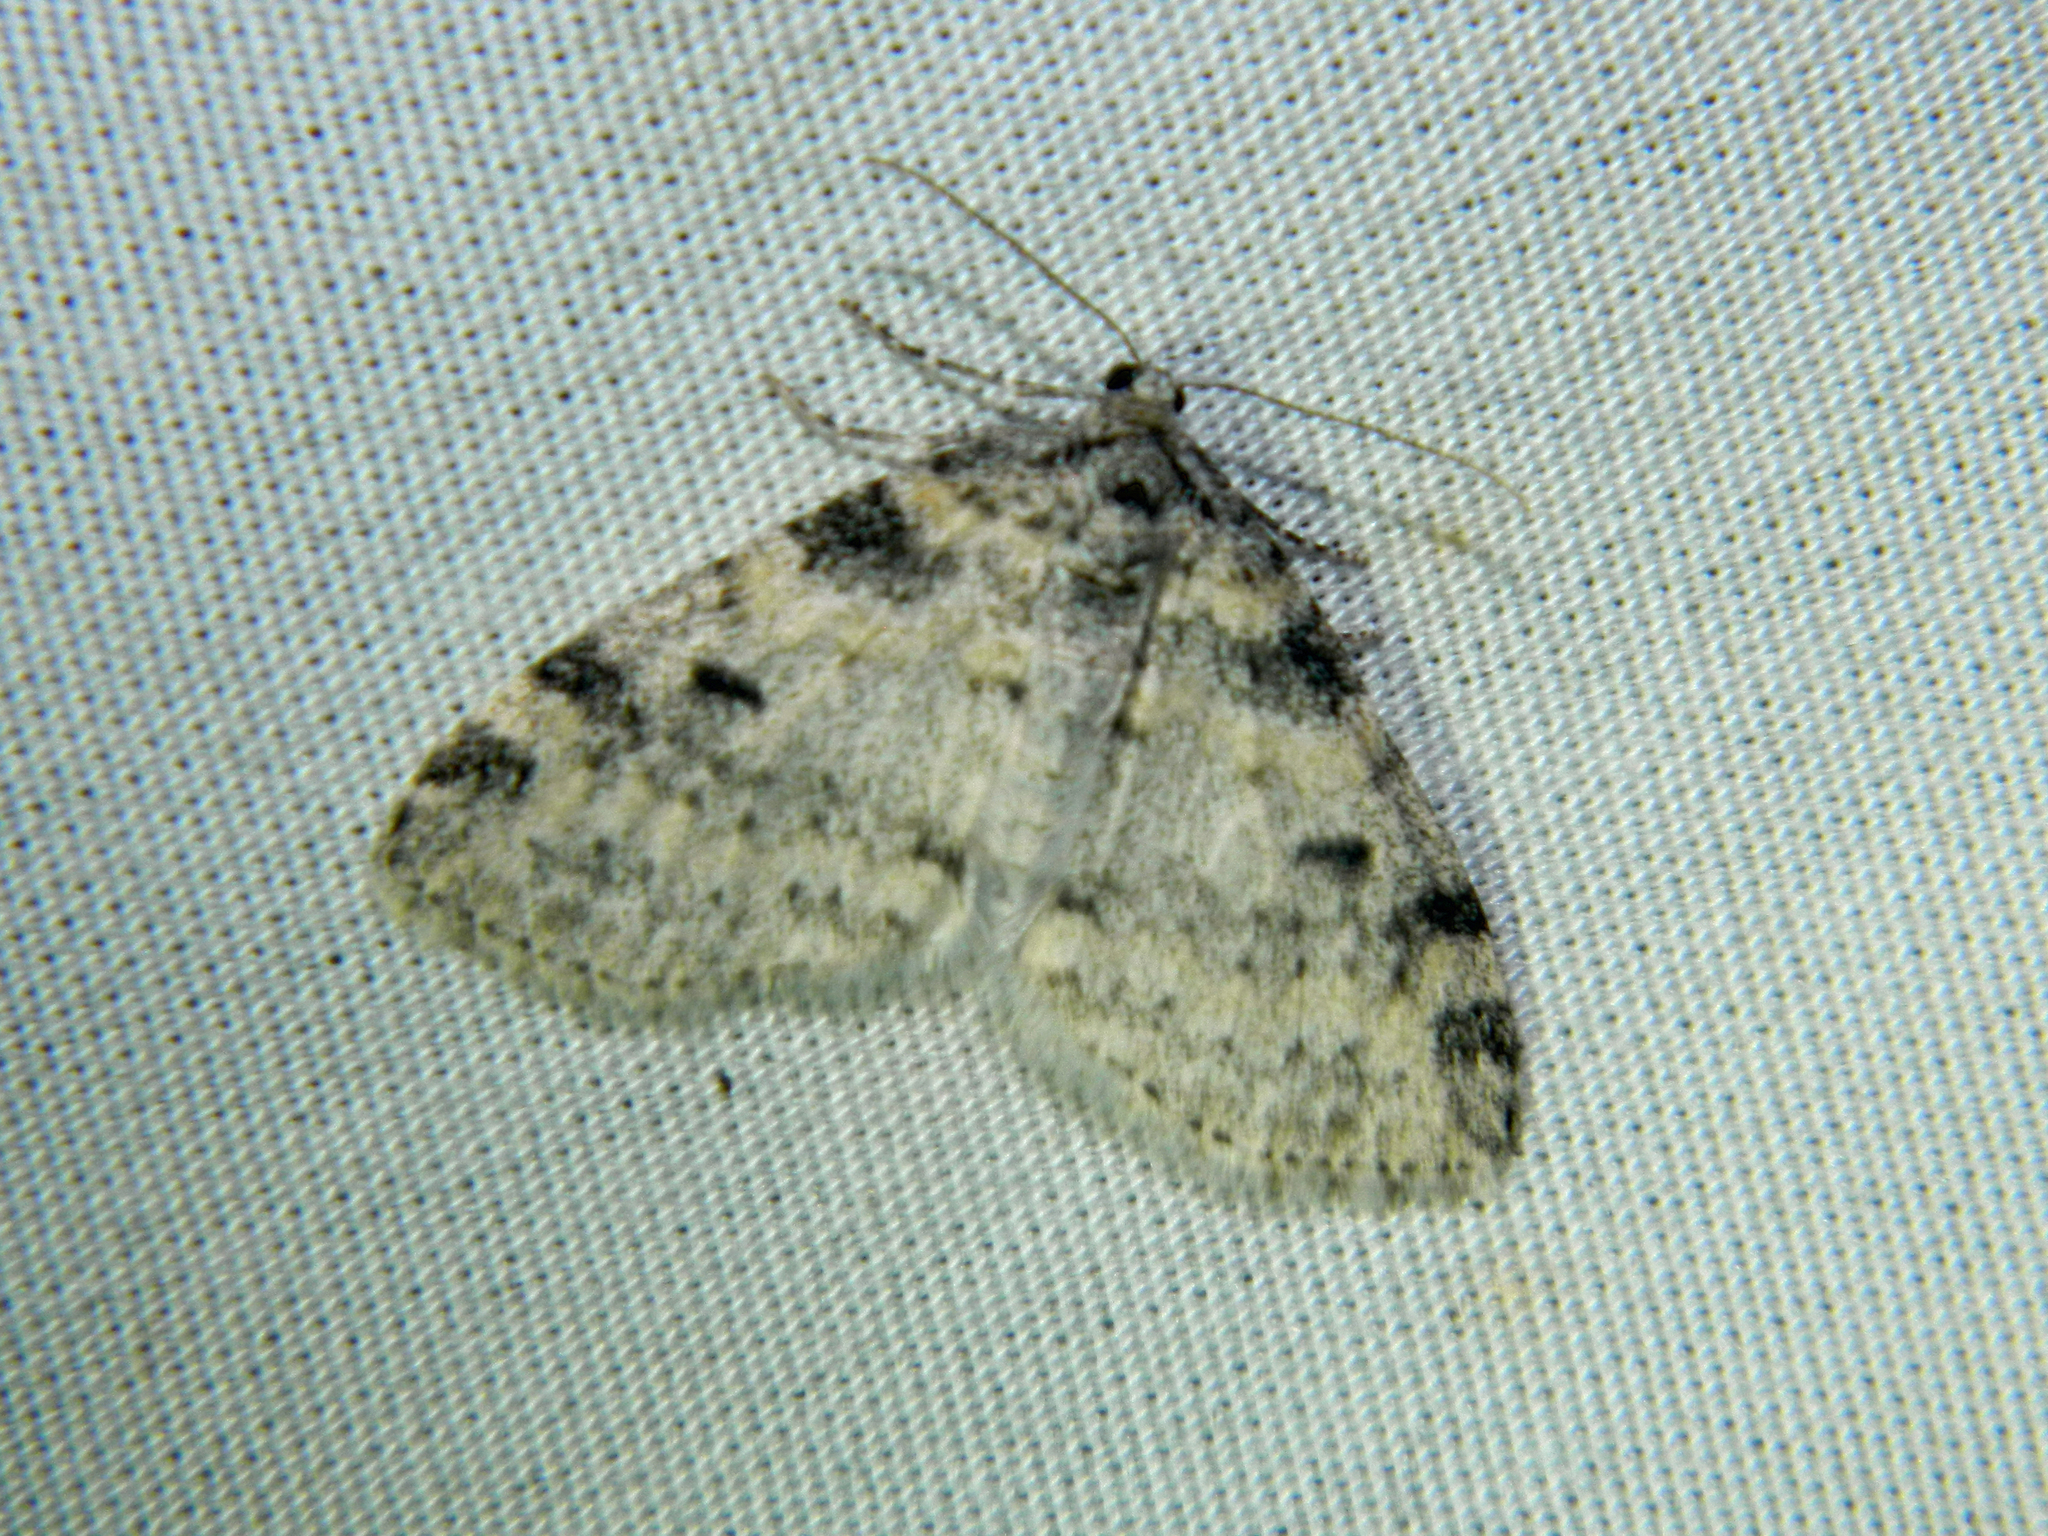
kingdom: Animalia
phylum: Arthropoda
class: Insecta
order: Lepidoptera
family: Geometridae
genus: Lobophora
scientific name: Lobophora nivigerata
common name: Powdered bigwing
